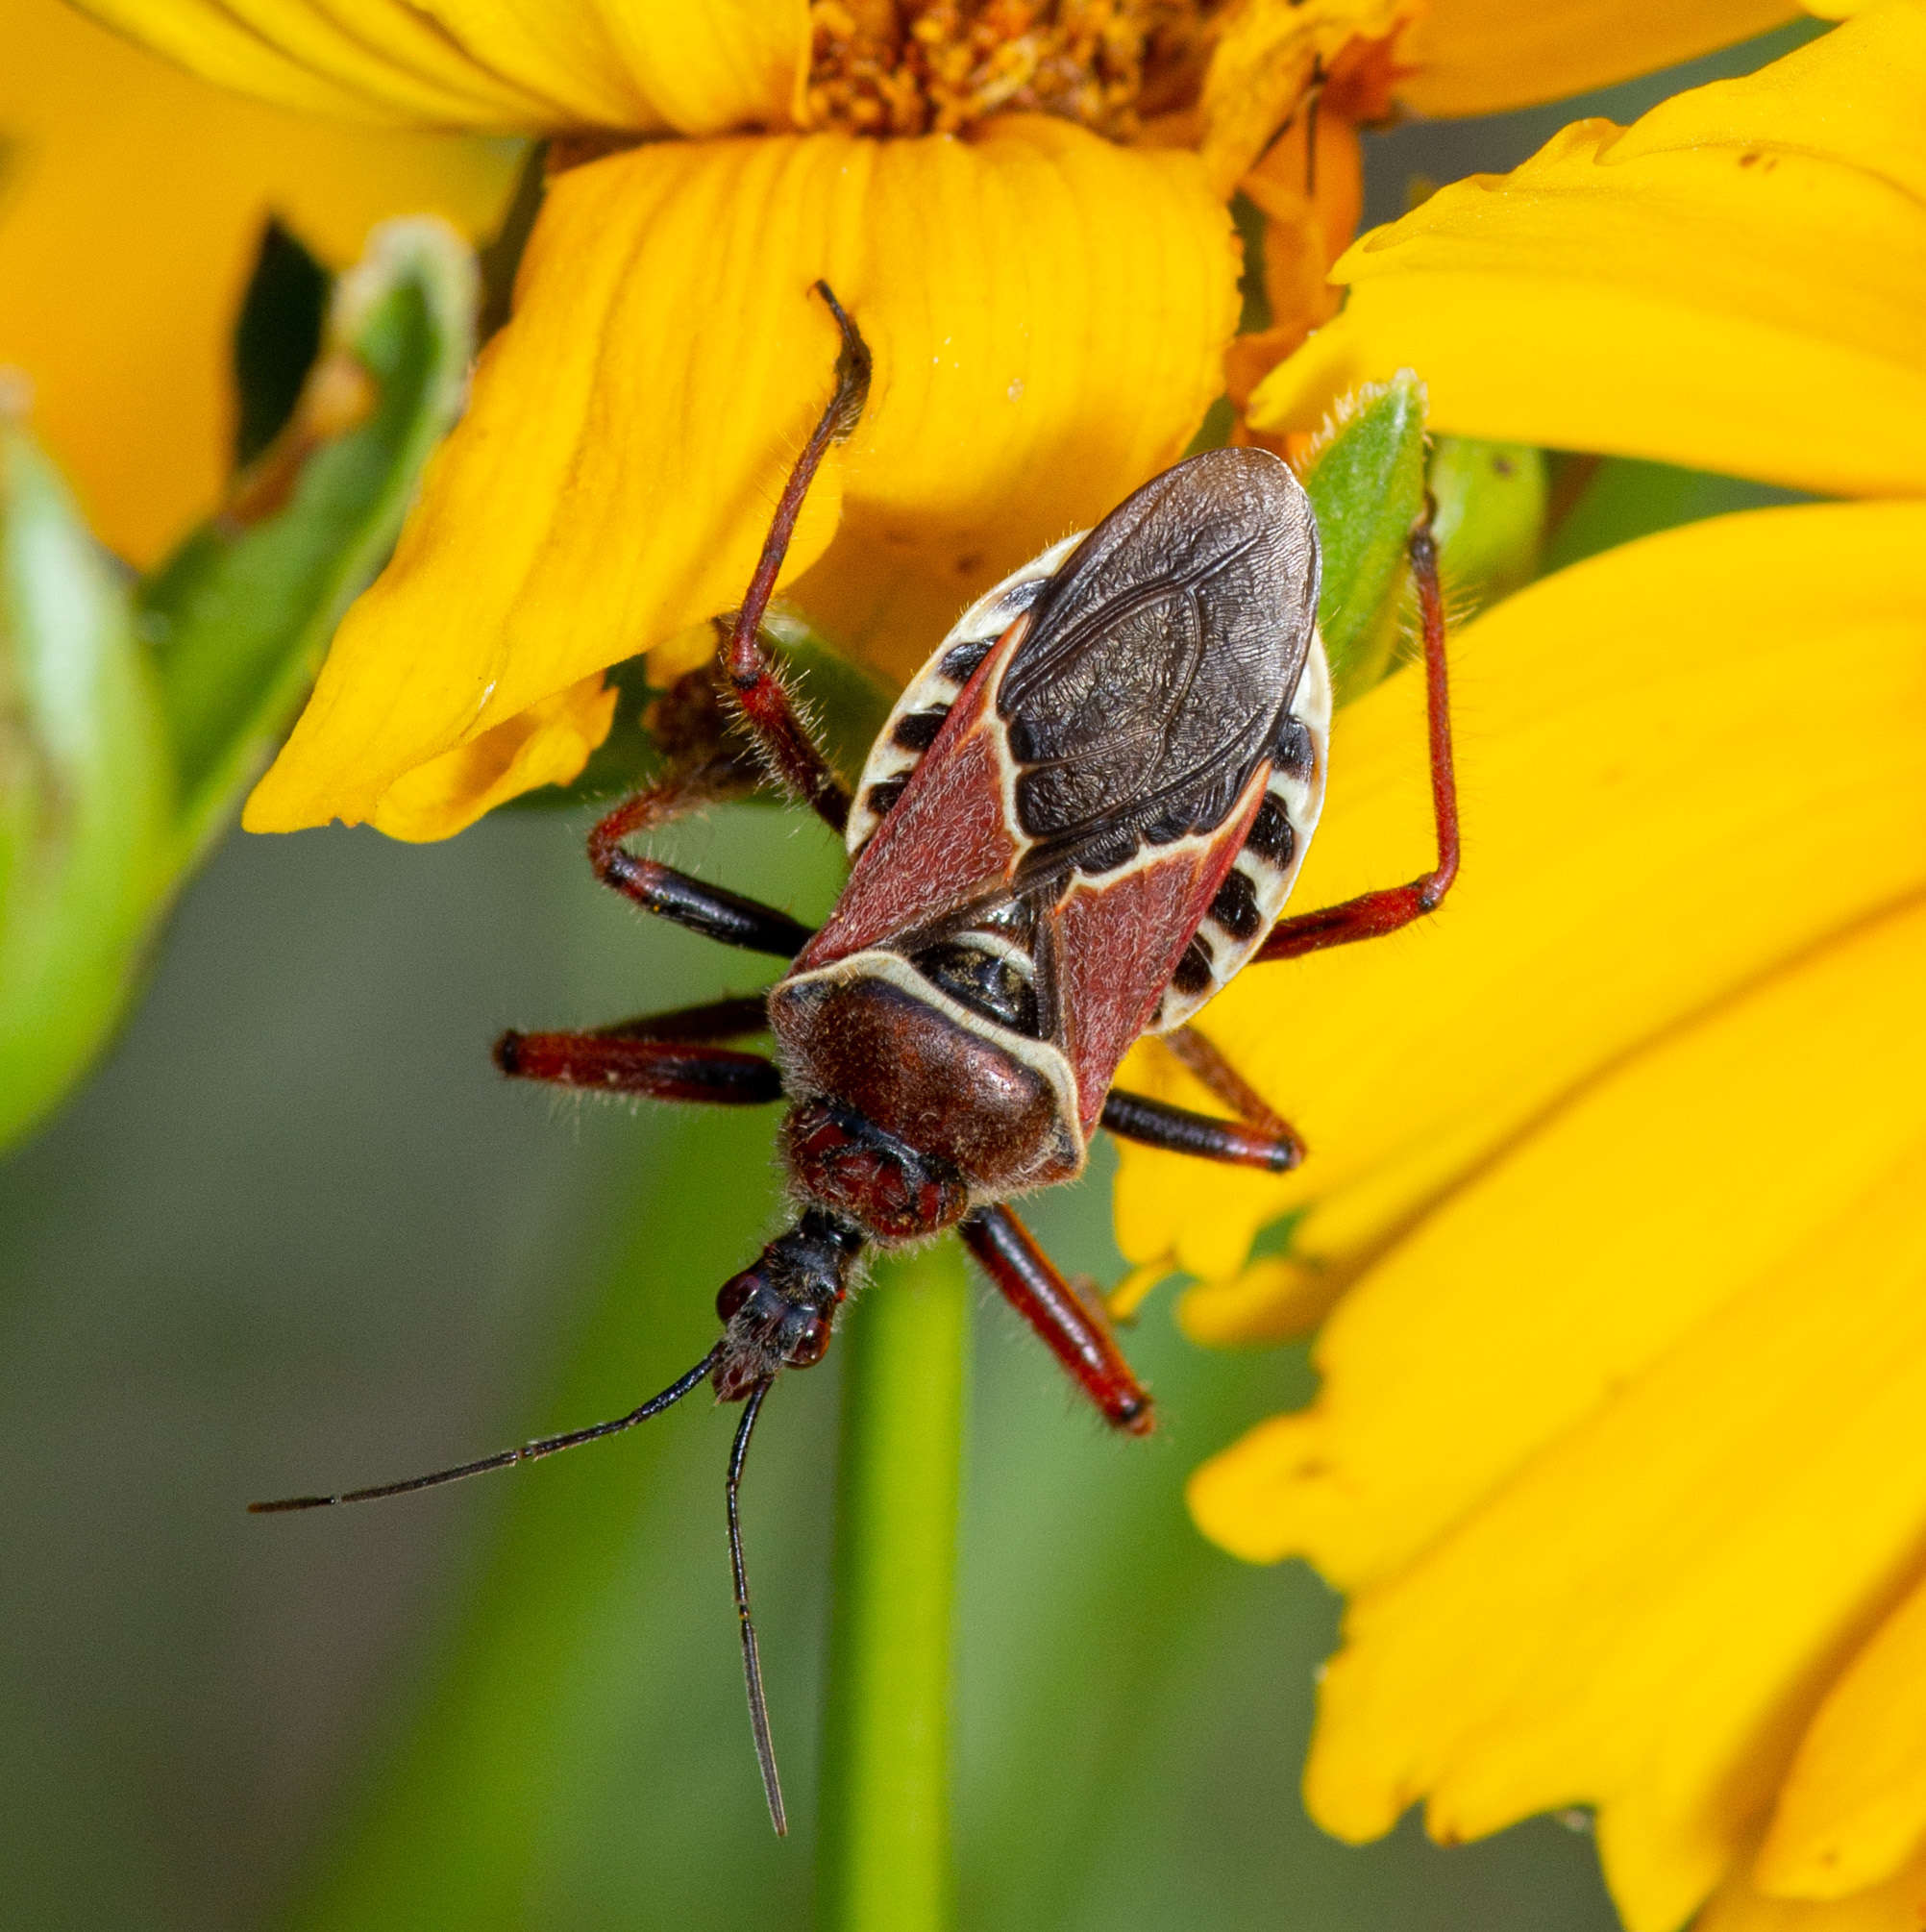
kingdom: Animalia
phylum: Arthropoda
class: Insecta
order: Hemiptera
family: Reduviidae
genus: Apiomerus
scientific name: Apiomerus spissipes
